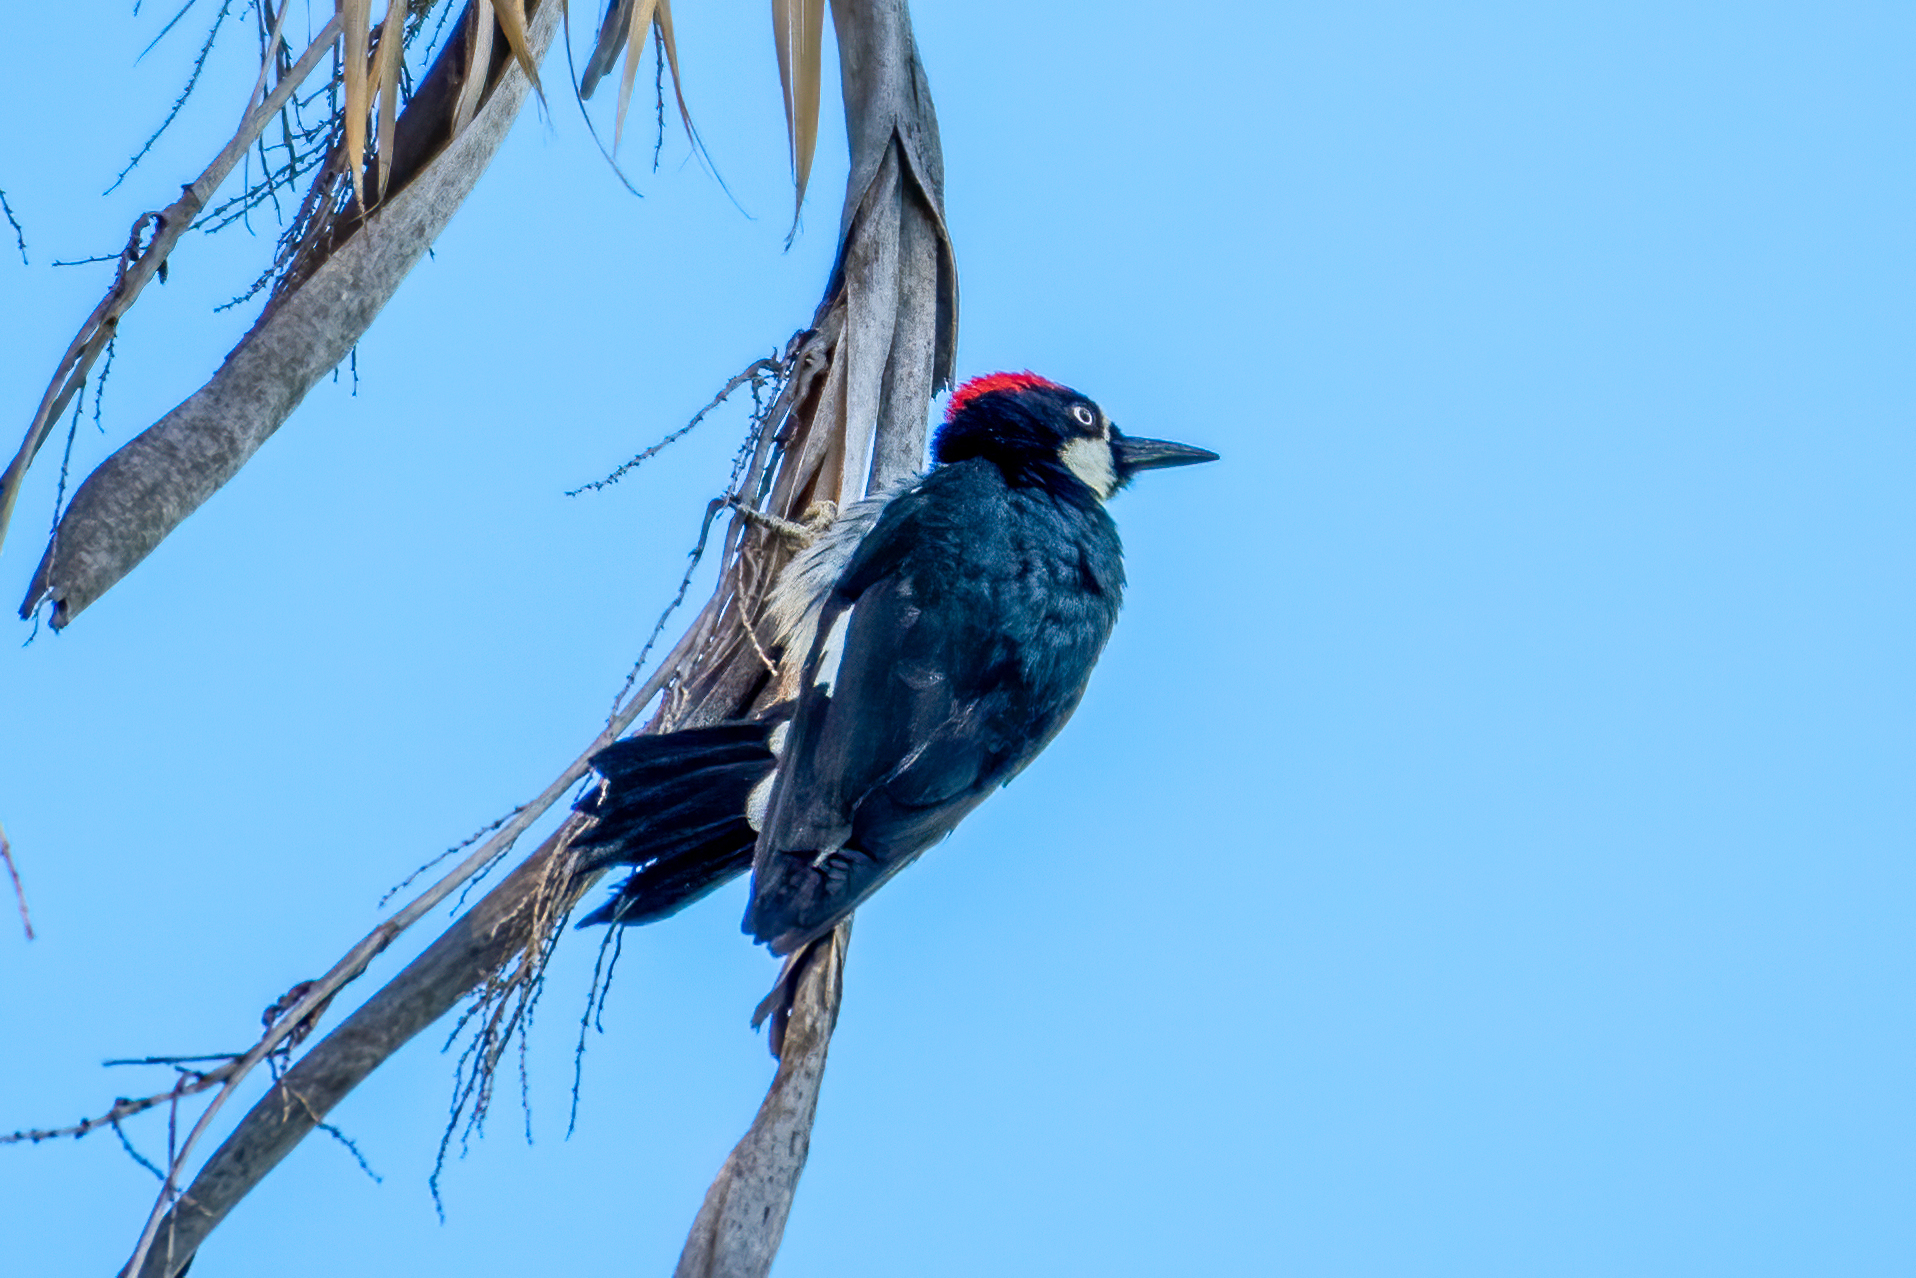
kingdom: Animalia
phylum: Chordata
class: Aves
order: Piciformes
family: Picidae
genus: Melanerpes
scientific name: Melanerpes formicivorus
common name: Acorn woodpecker
